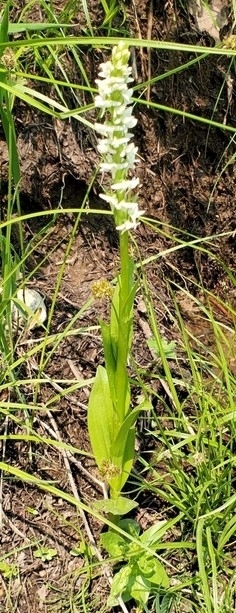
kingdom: Plantae
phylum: Tracheophyta
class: Liliopsida
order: Asparagales
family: Orchidaceae
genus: Platanthera
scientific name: Platanthera dilatata
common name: Bog candles
